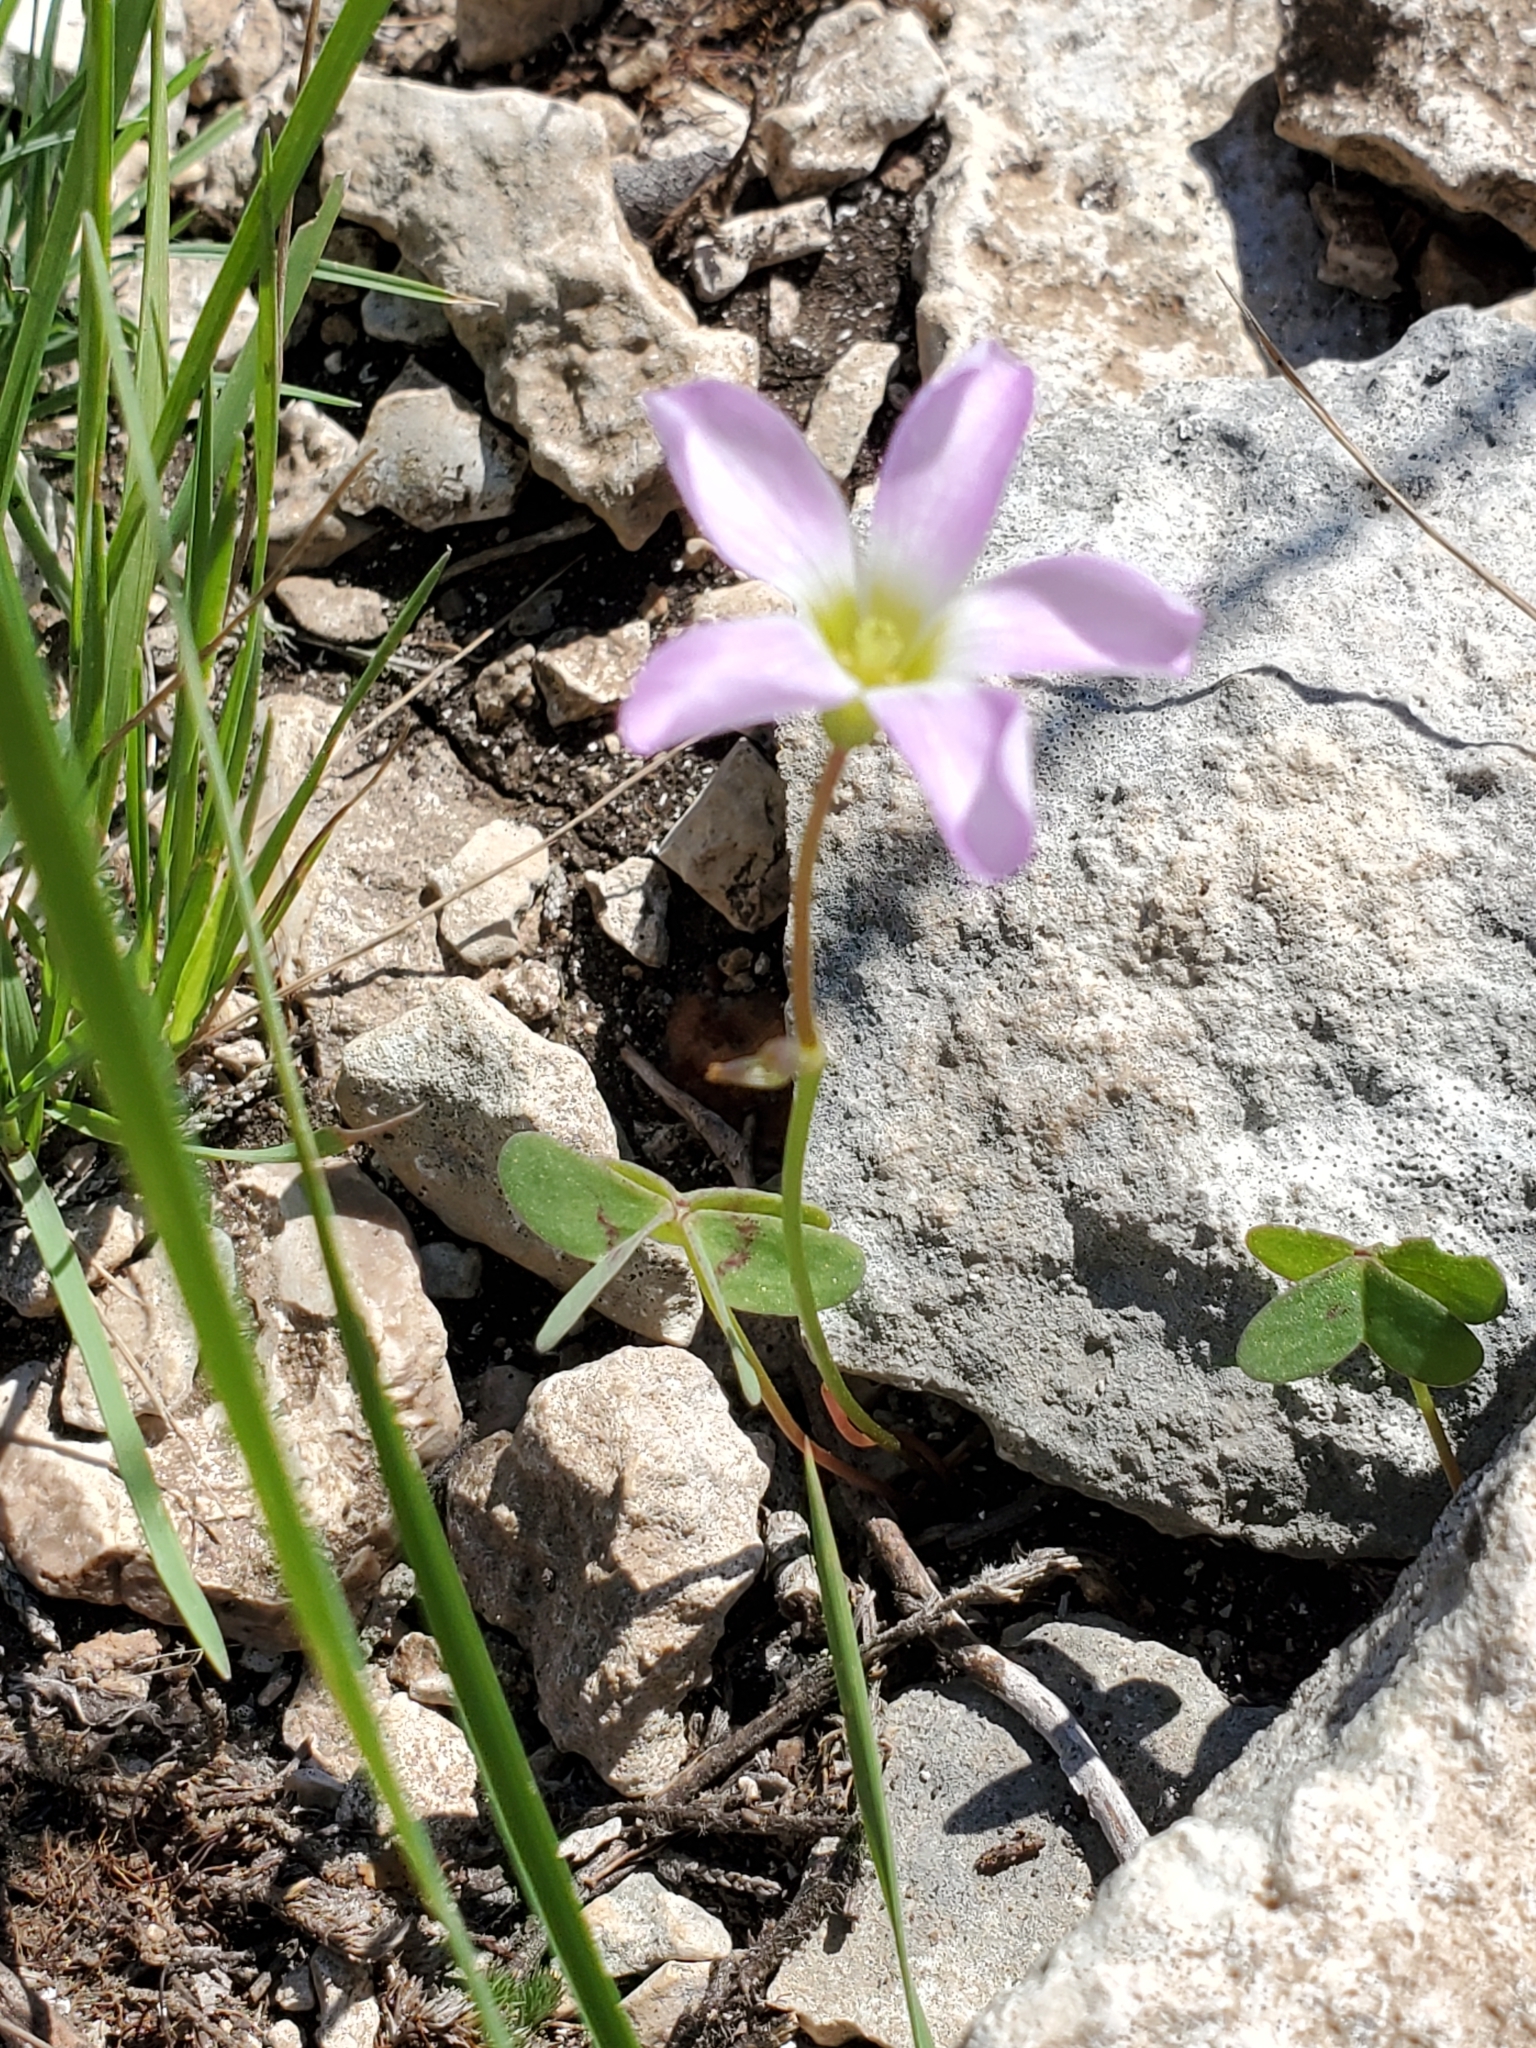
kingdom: Plantae
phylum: Tracheophyta
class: Magnoliopsida
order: Oxalidales
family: Oxalidaceae
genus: Oxalis
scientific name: Oxalis drummondii
